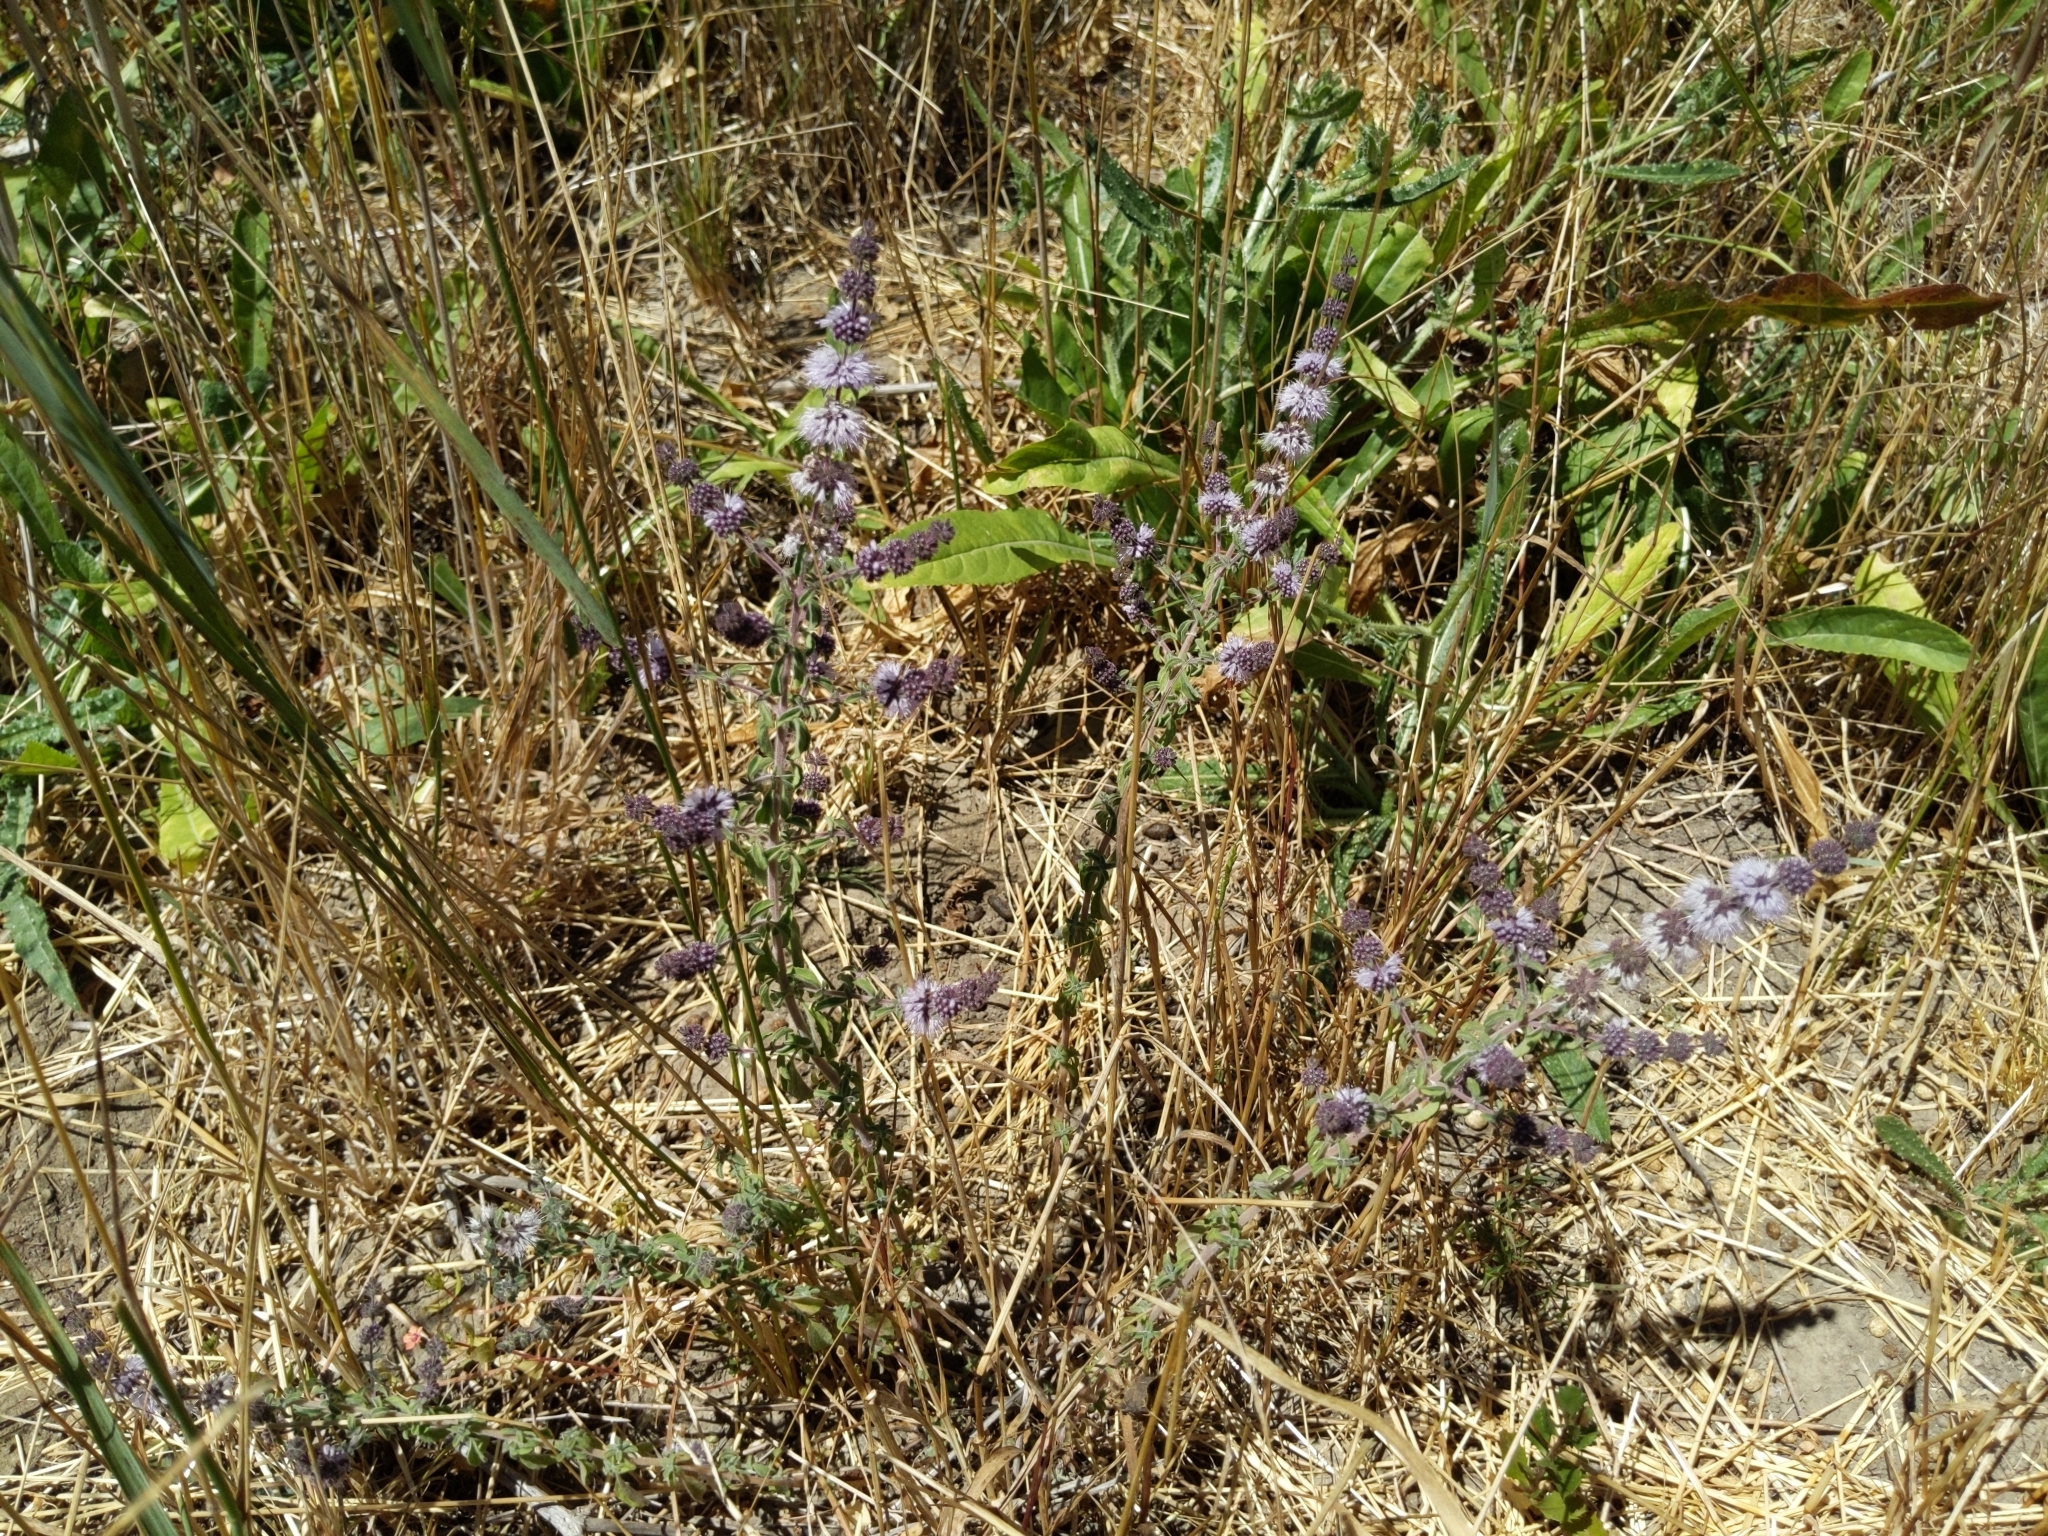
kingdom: Plantae
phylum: Tracheophyta
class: Magnoliopsida
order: Lamiales
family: Lamiaceae
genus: Mentha
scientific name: Mentha pulegium
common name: Pennyroyal
